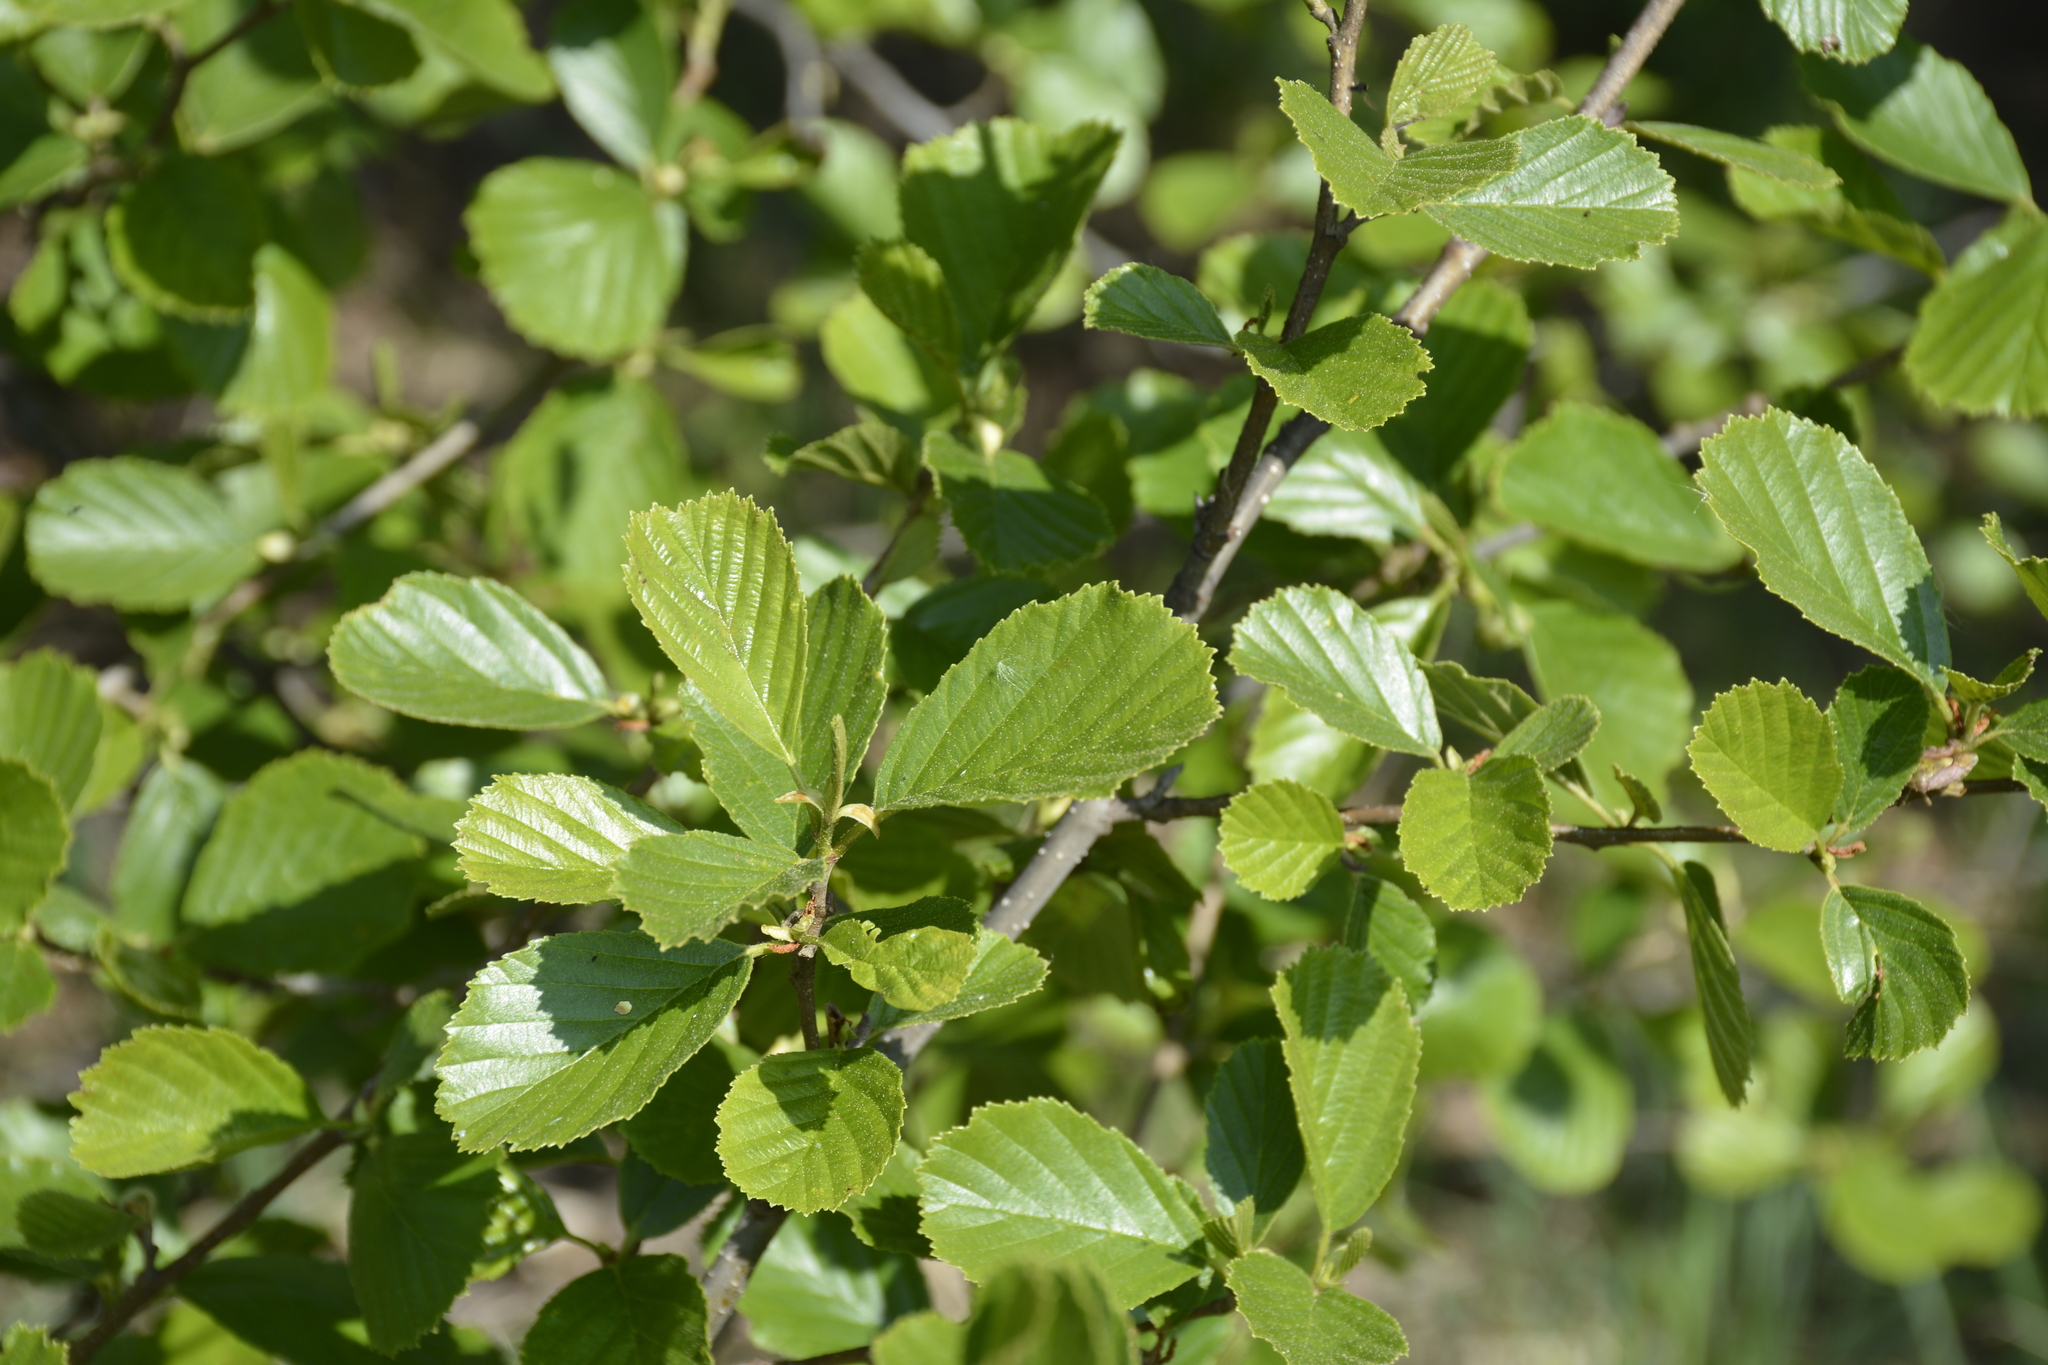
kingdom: Plantae
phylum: Tracheophyta
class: Magnoliopsida
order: Fagales
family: Betulaceae
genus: Alnus
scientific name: Alnus glutinosa
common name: Black alder
